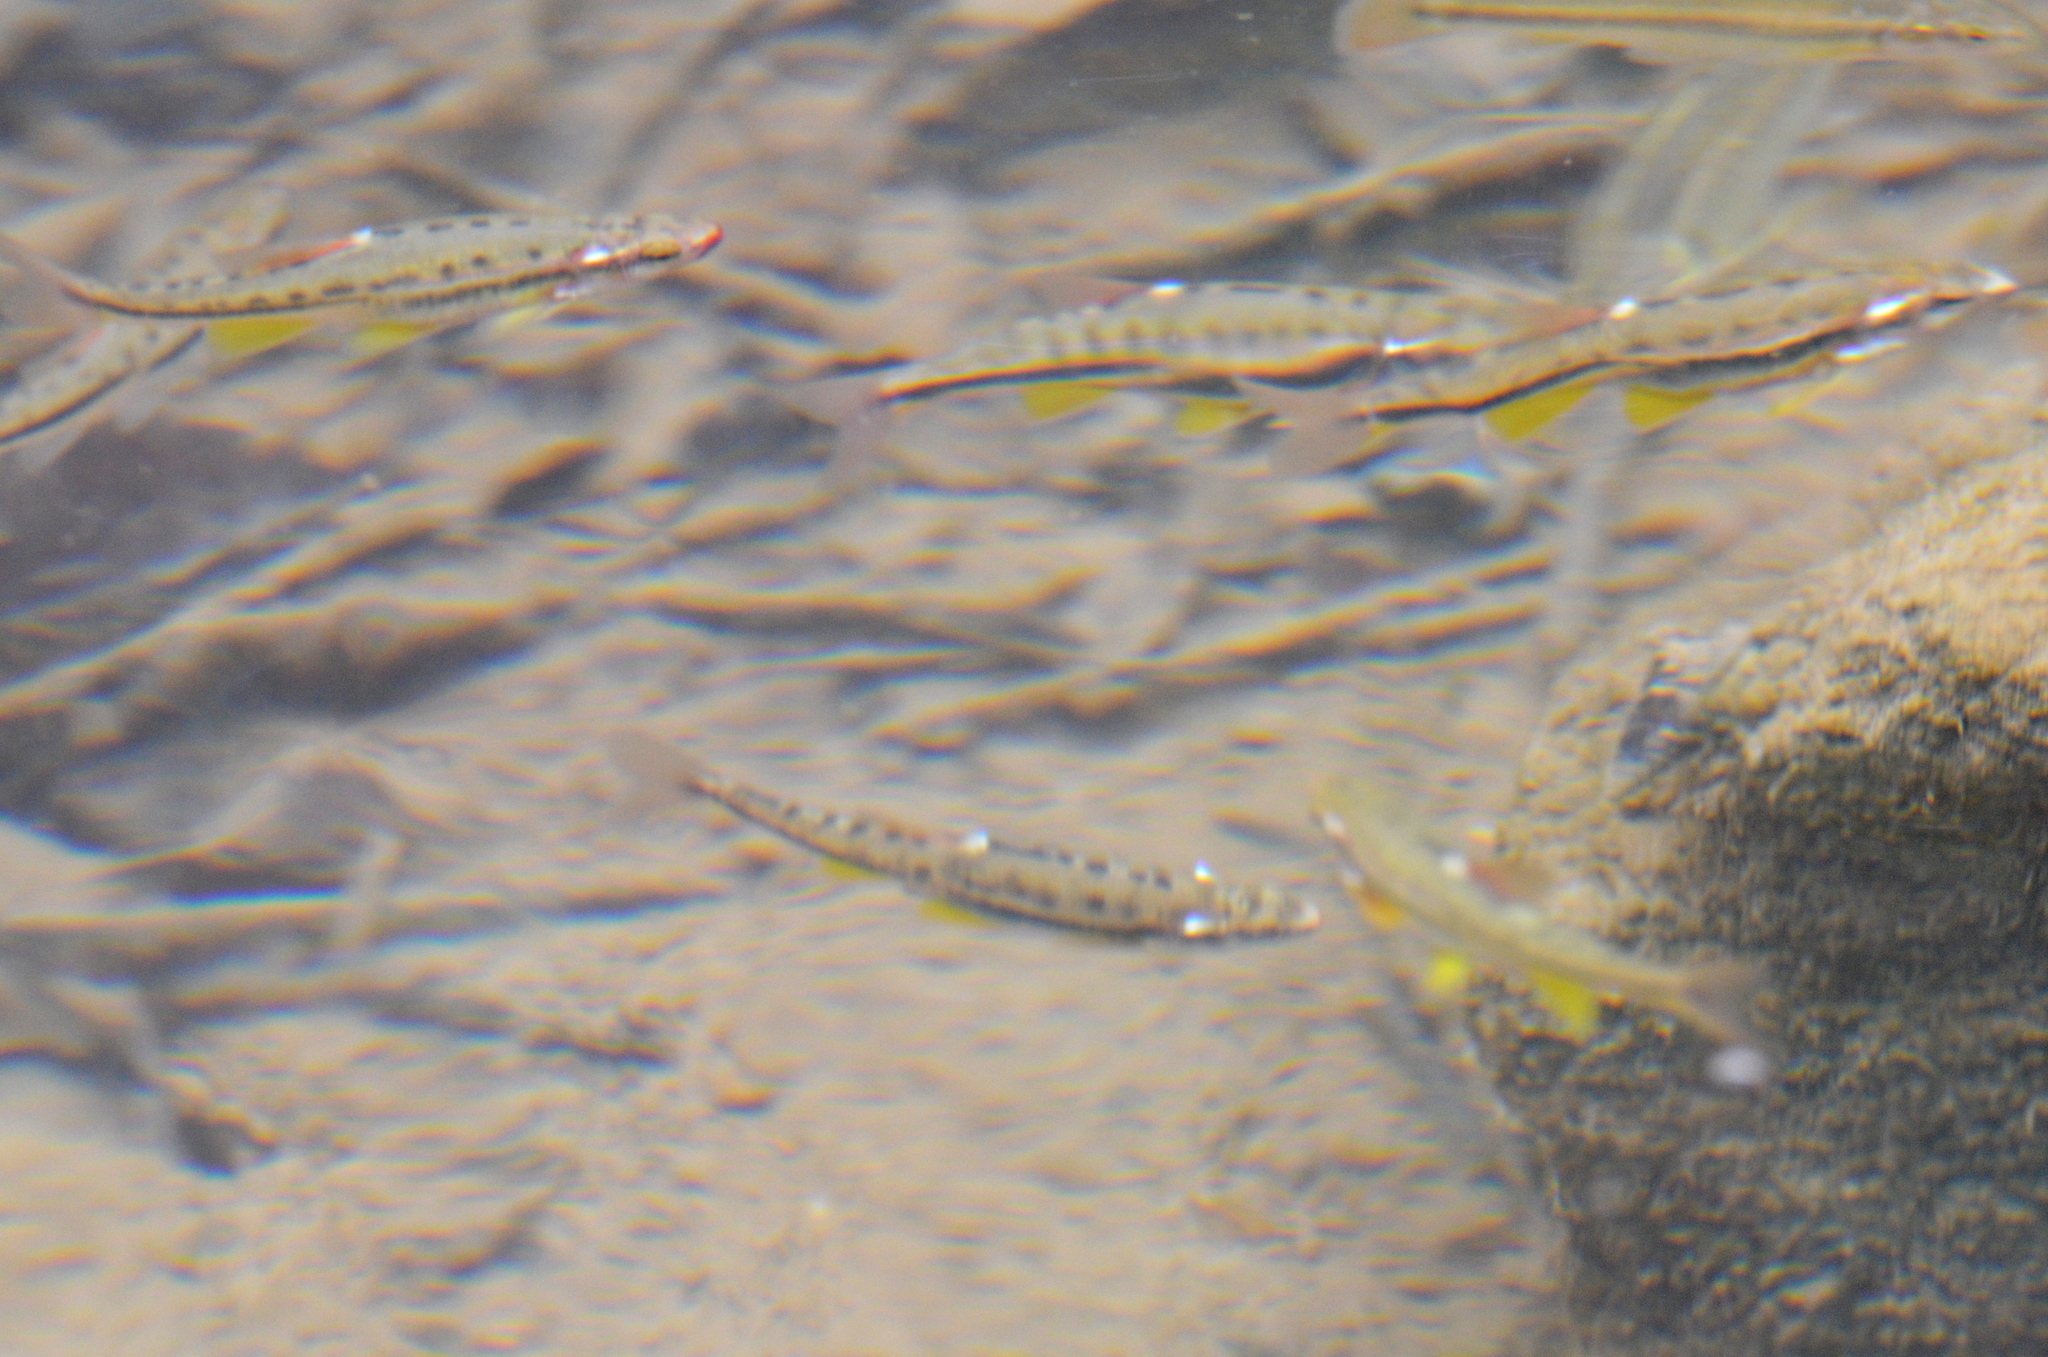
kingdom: Animalia
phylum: Chordata
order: Cypriniformes
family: Cyprinidae
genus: Chrosomus
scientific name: Chrosomus oreas
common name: Mountain redbelly dace
